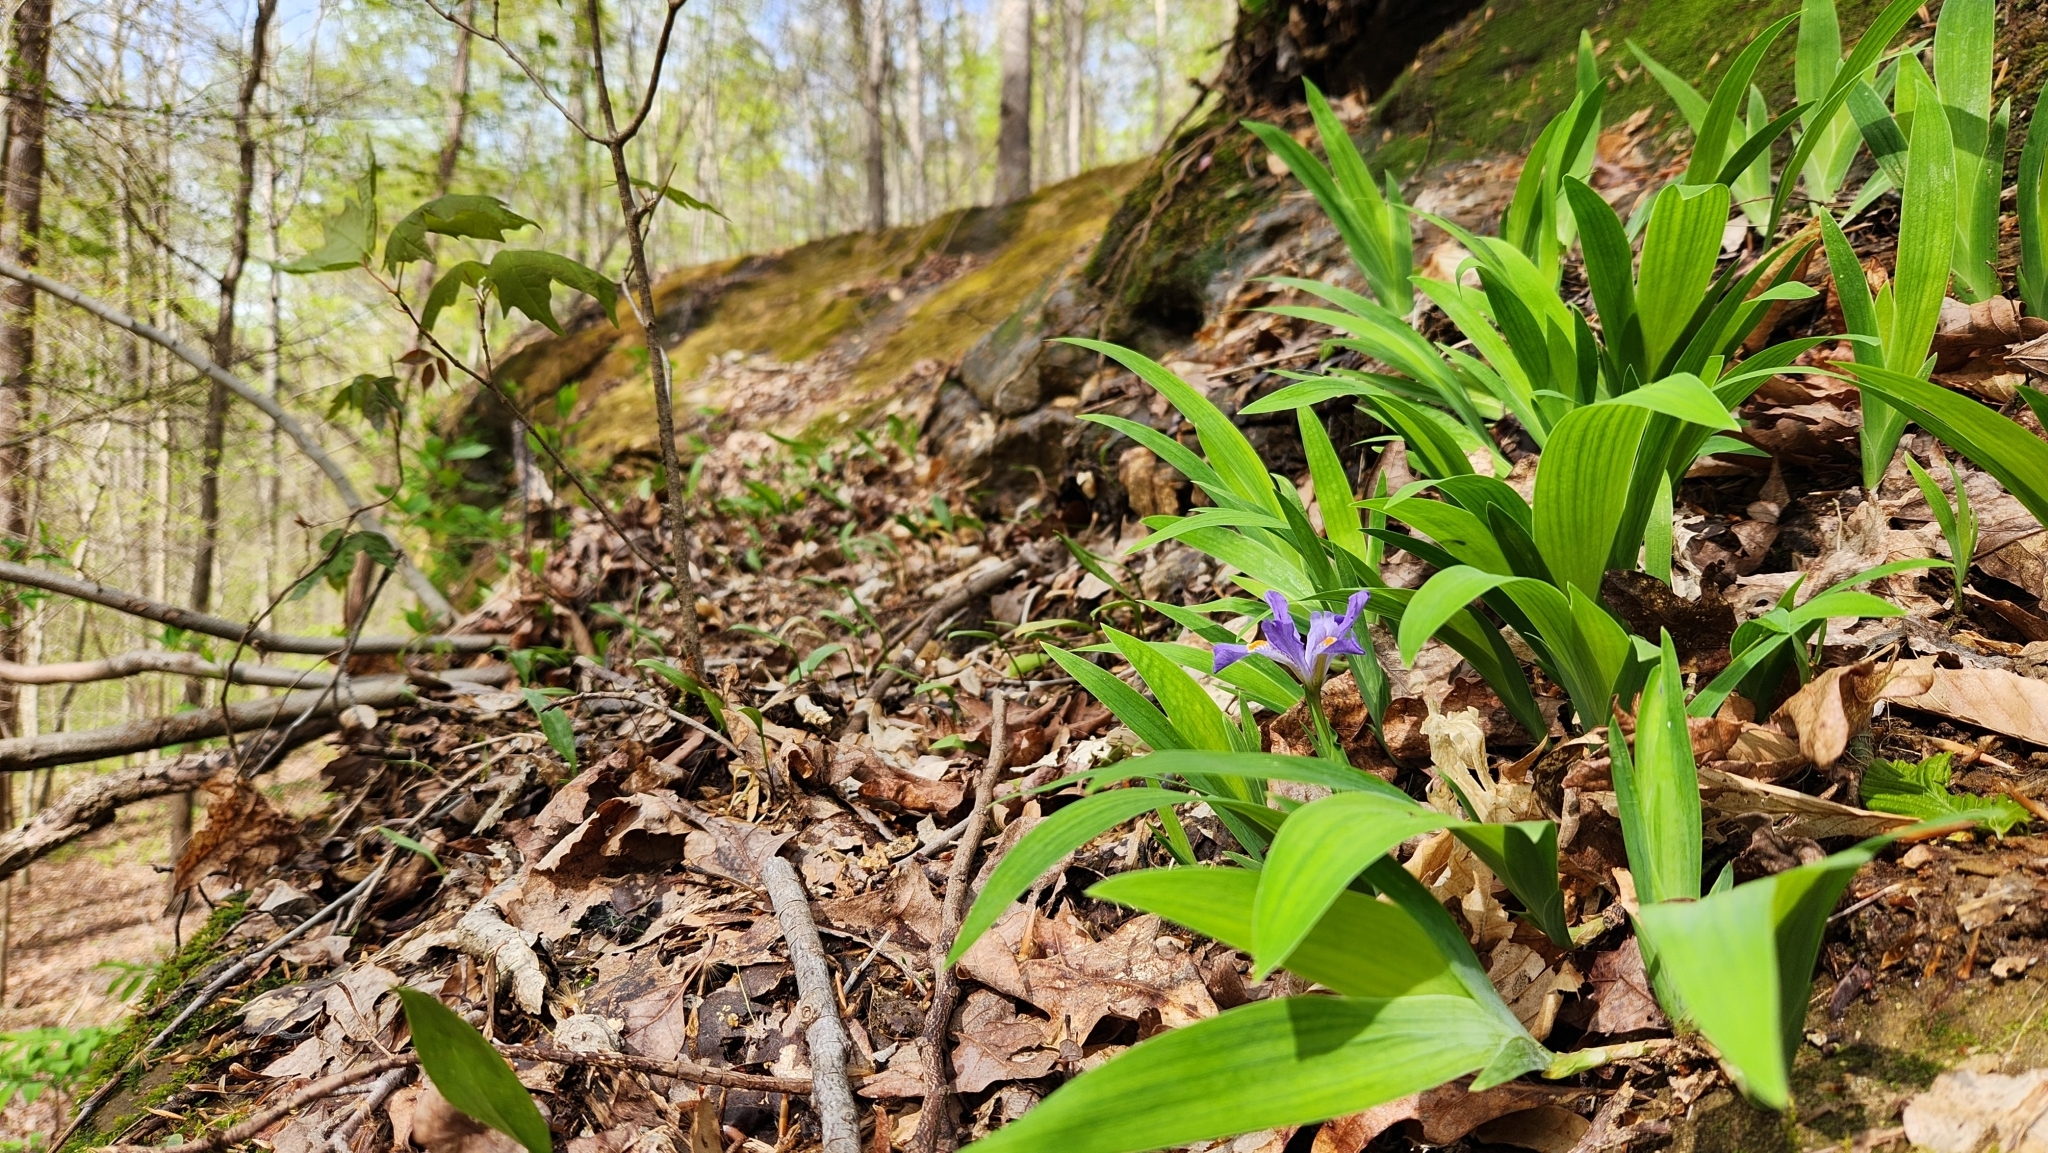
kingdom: Plantae
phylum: Tracheophyta
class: Liliopsida
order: Asparagales
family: Iridaceae
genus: Iris
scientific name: Iris cristata
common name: Crested iris
